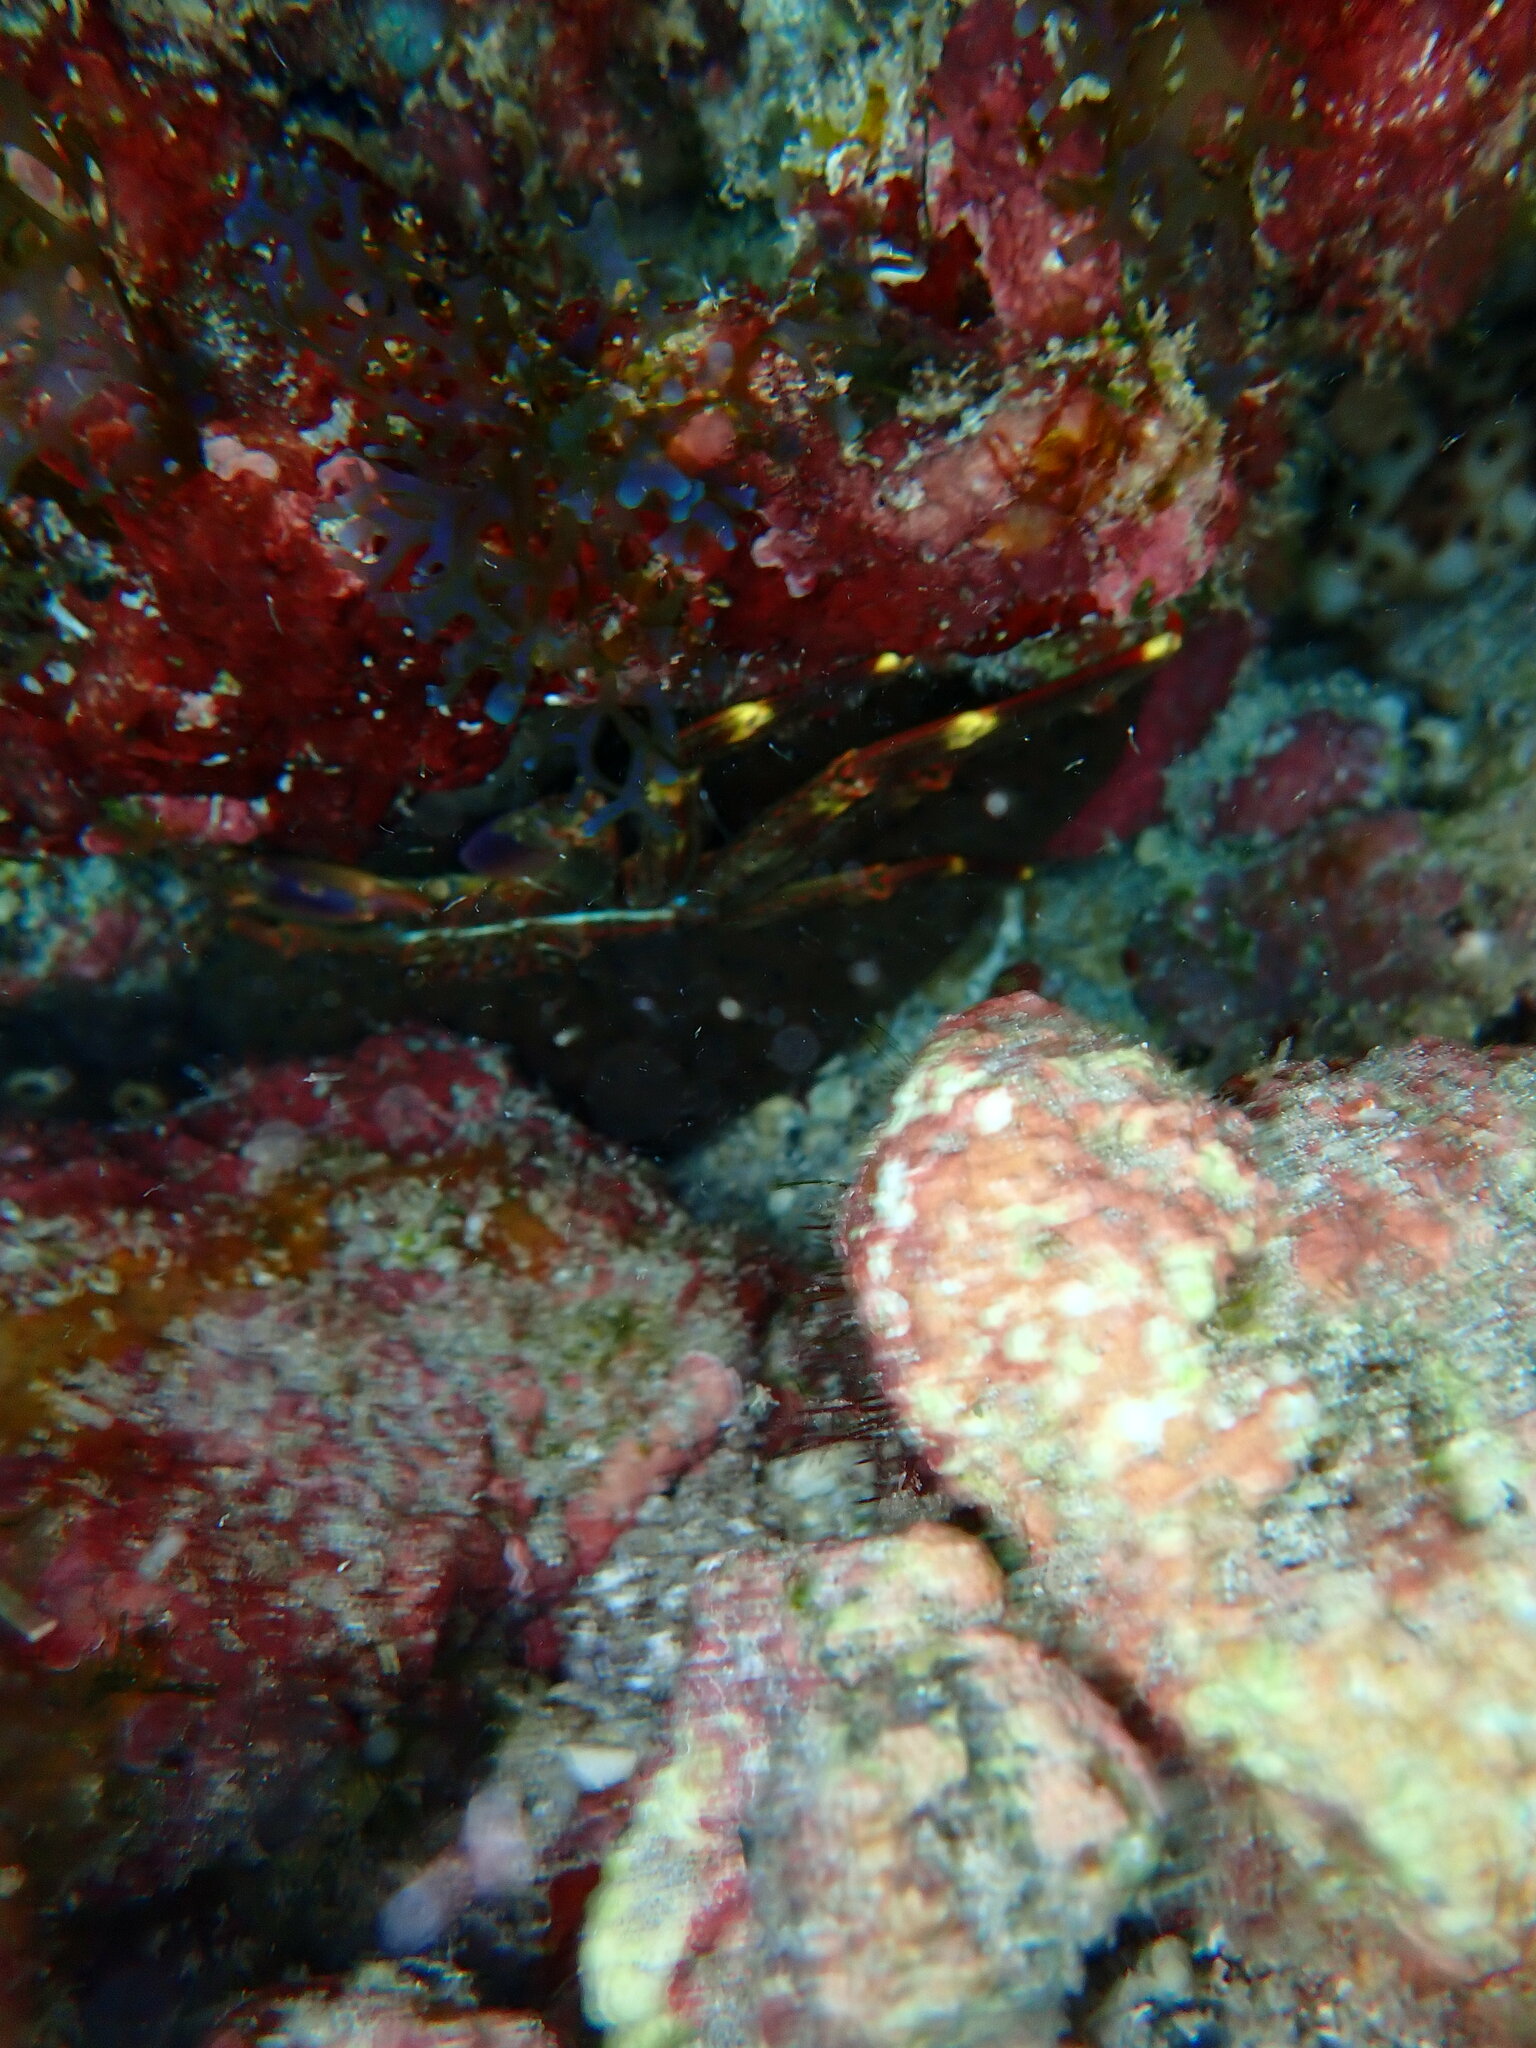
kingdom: Animalia
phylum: Arthropoda
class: Malacostraca
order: Decapoda
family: Percnidae
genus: Percnon
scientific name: Percnon gibbesi
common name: Nimble spray crab
